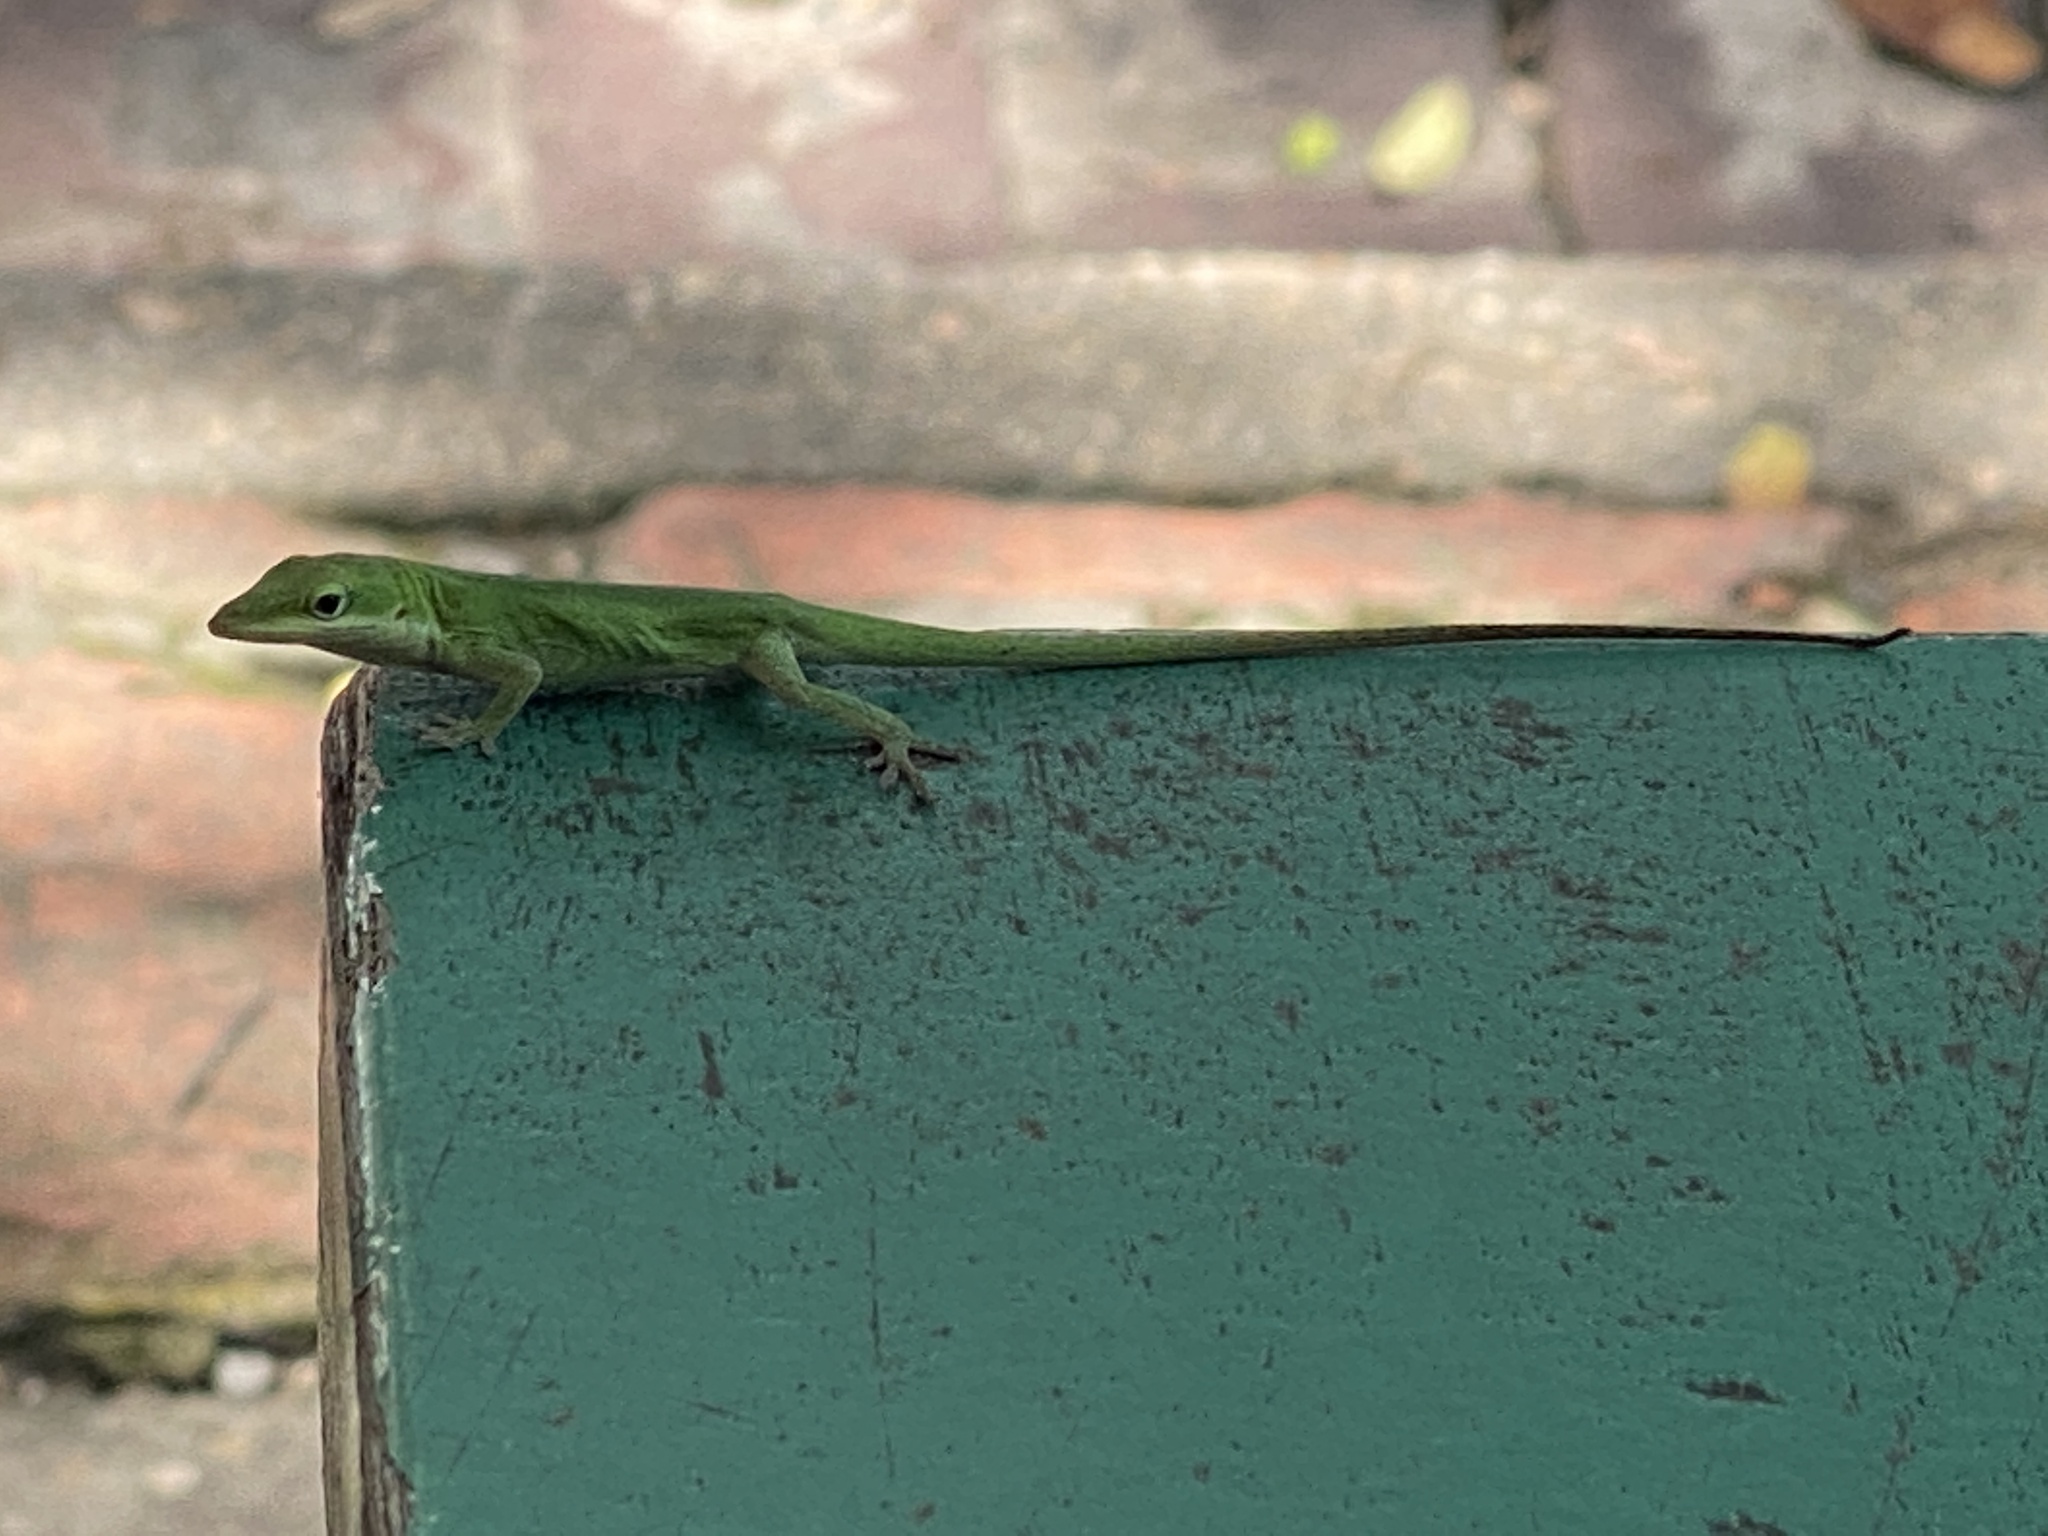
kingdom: Animalia
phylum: Chordata
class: Squamata
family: Dactyloidae
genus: Anolis
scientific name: Anolis carolinensis
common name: Green anole
